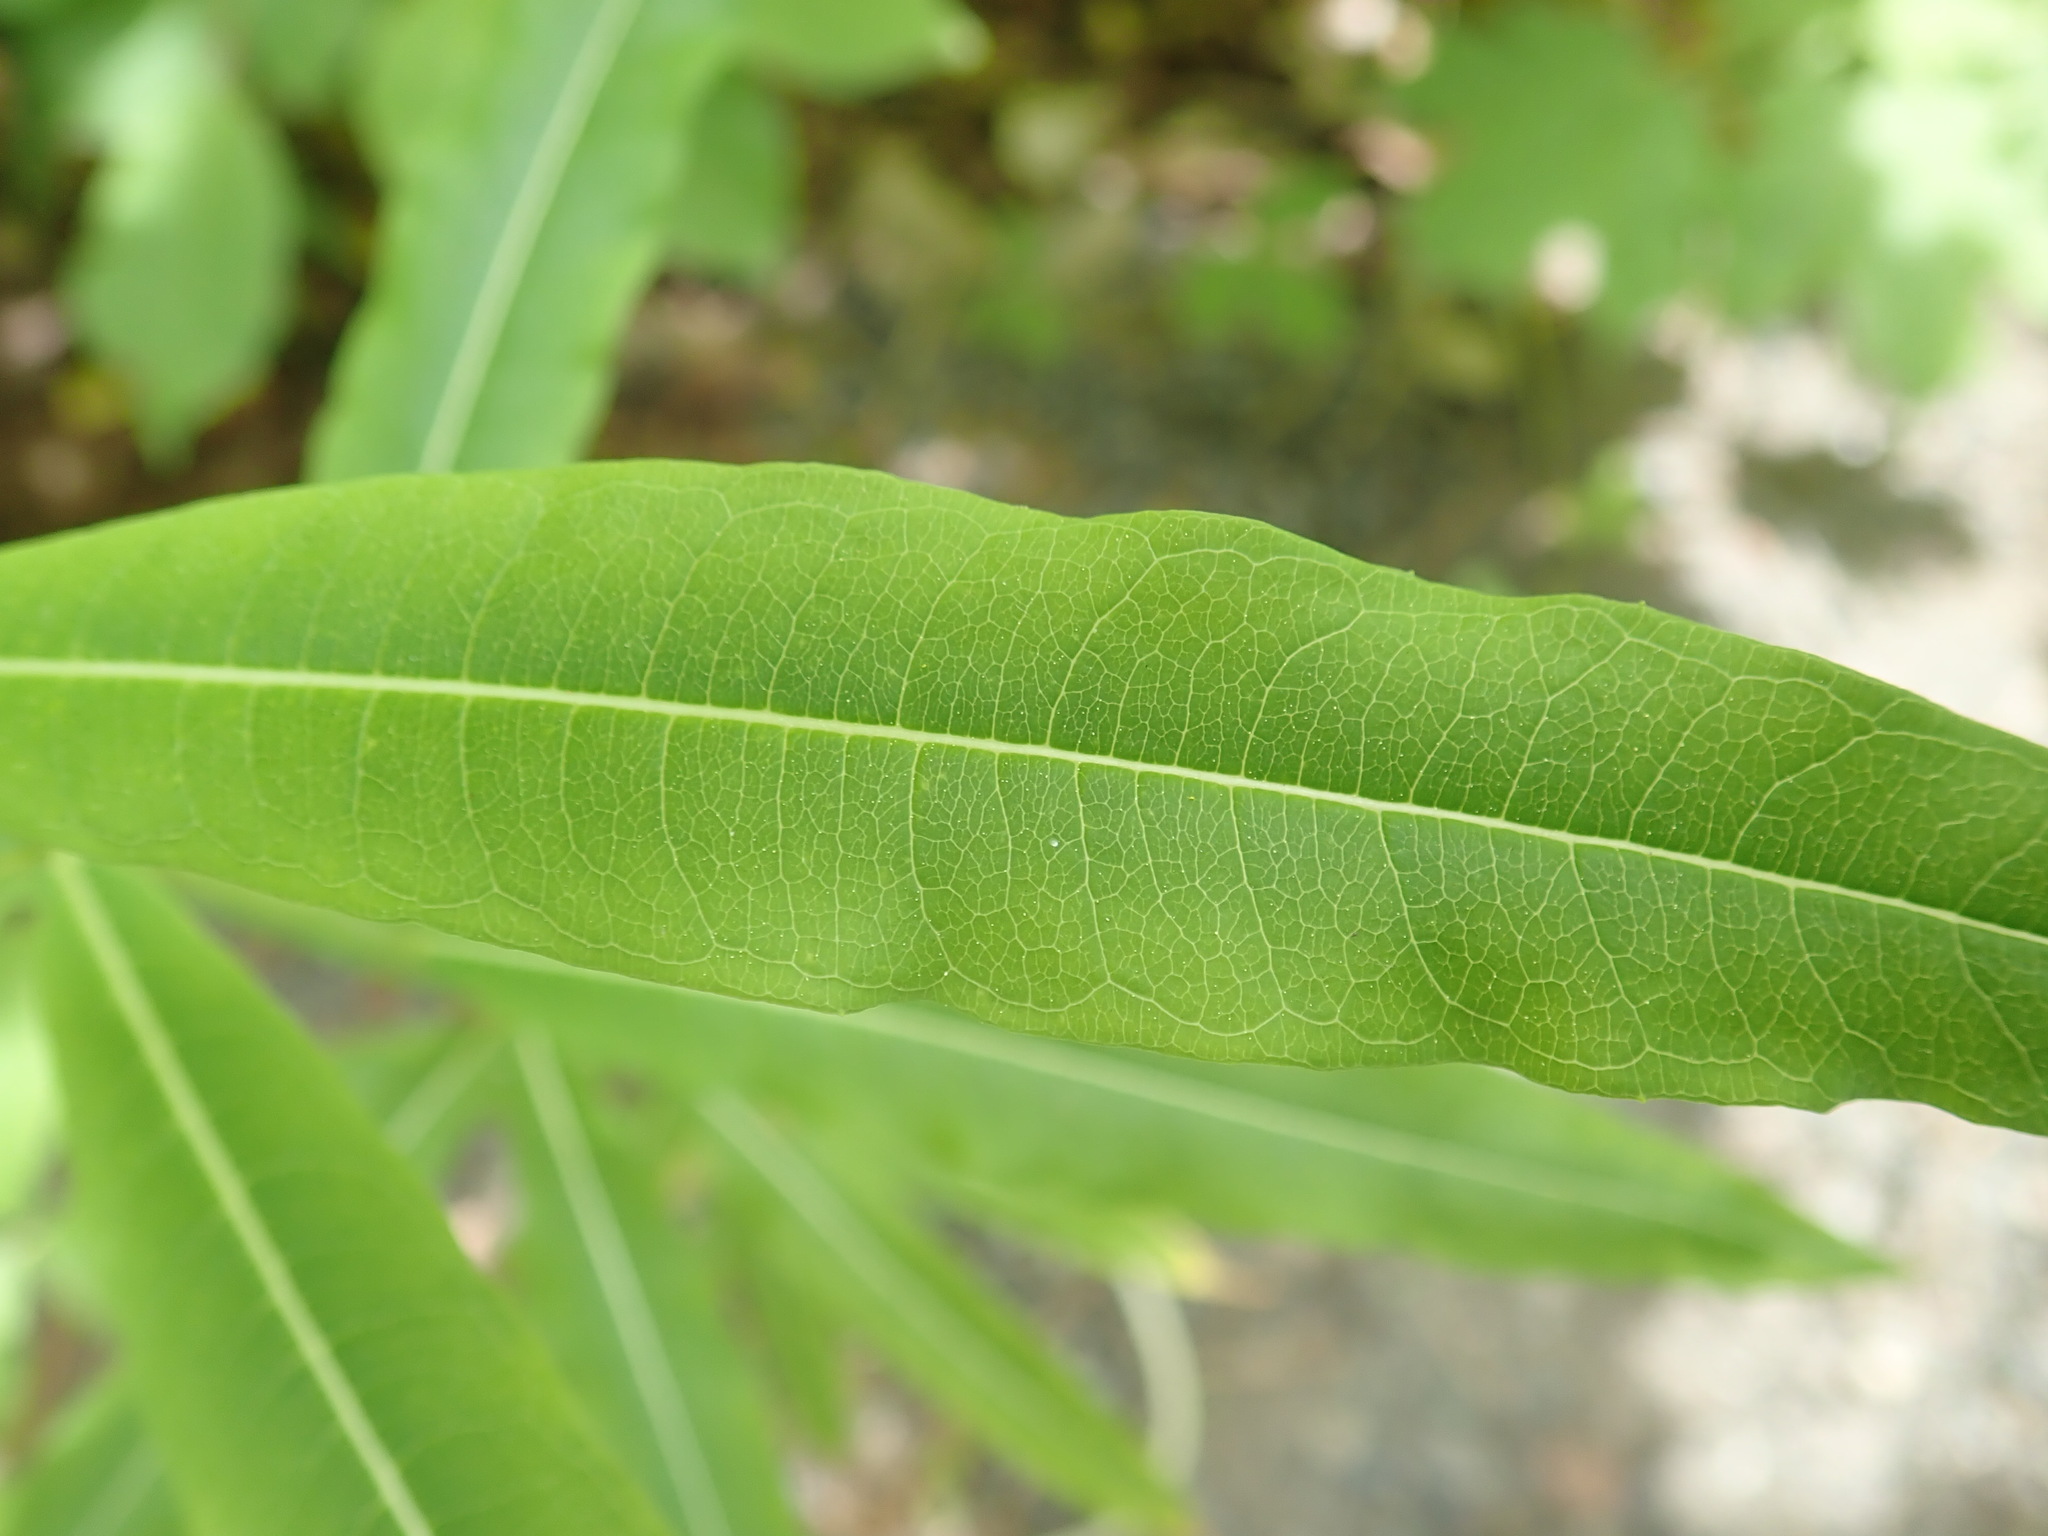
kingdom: Plantae
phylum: Tracheophyta
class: Magnoliopsida
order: Myrtales
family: Onagraceae
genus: Chamaenerion
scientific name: Chamaenerion angustifolium
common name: Fireweed
